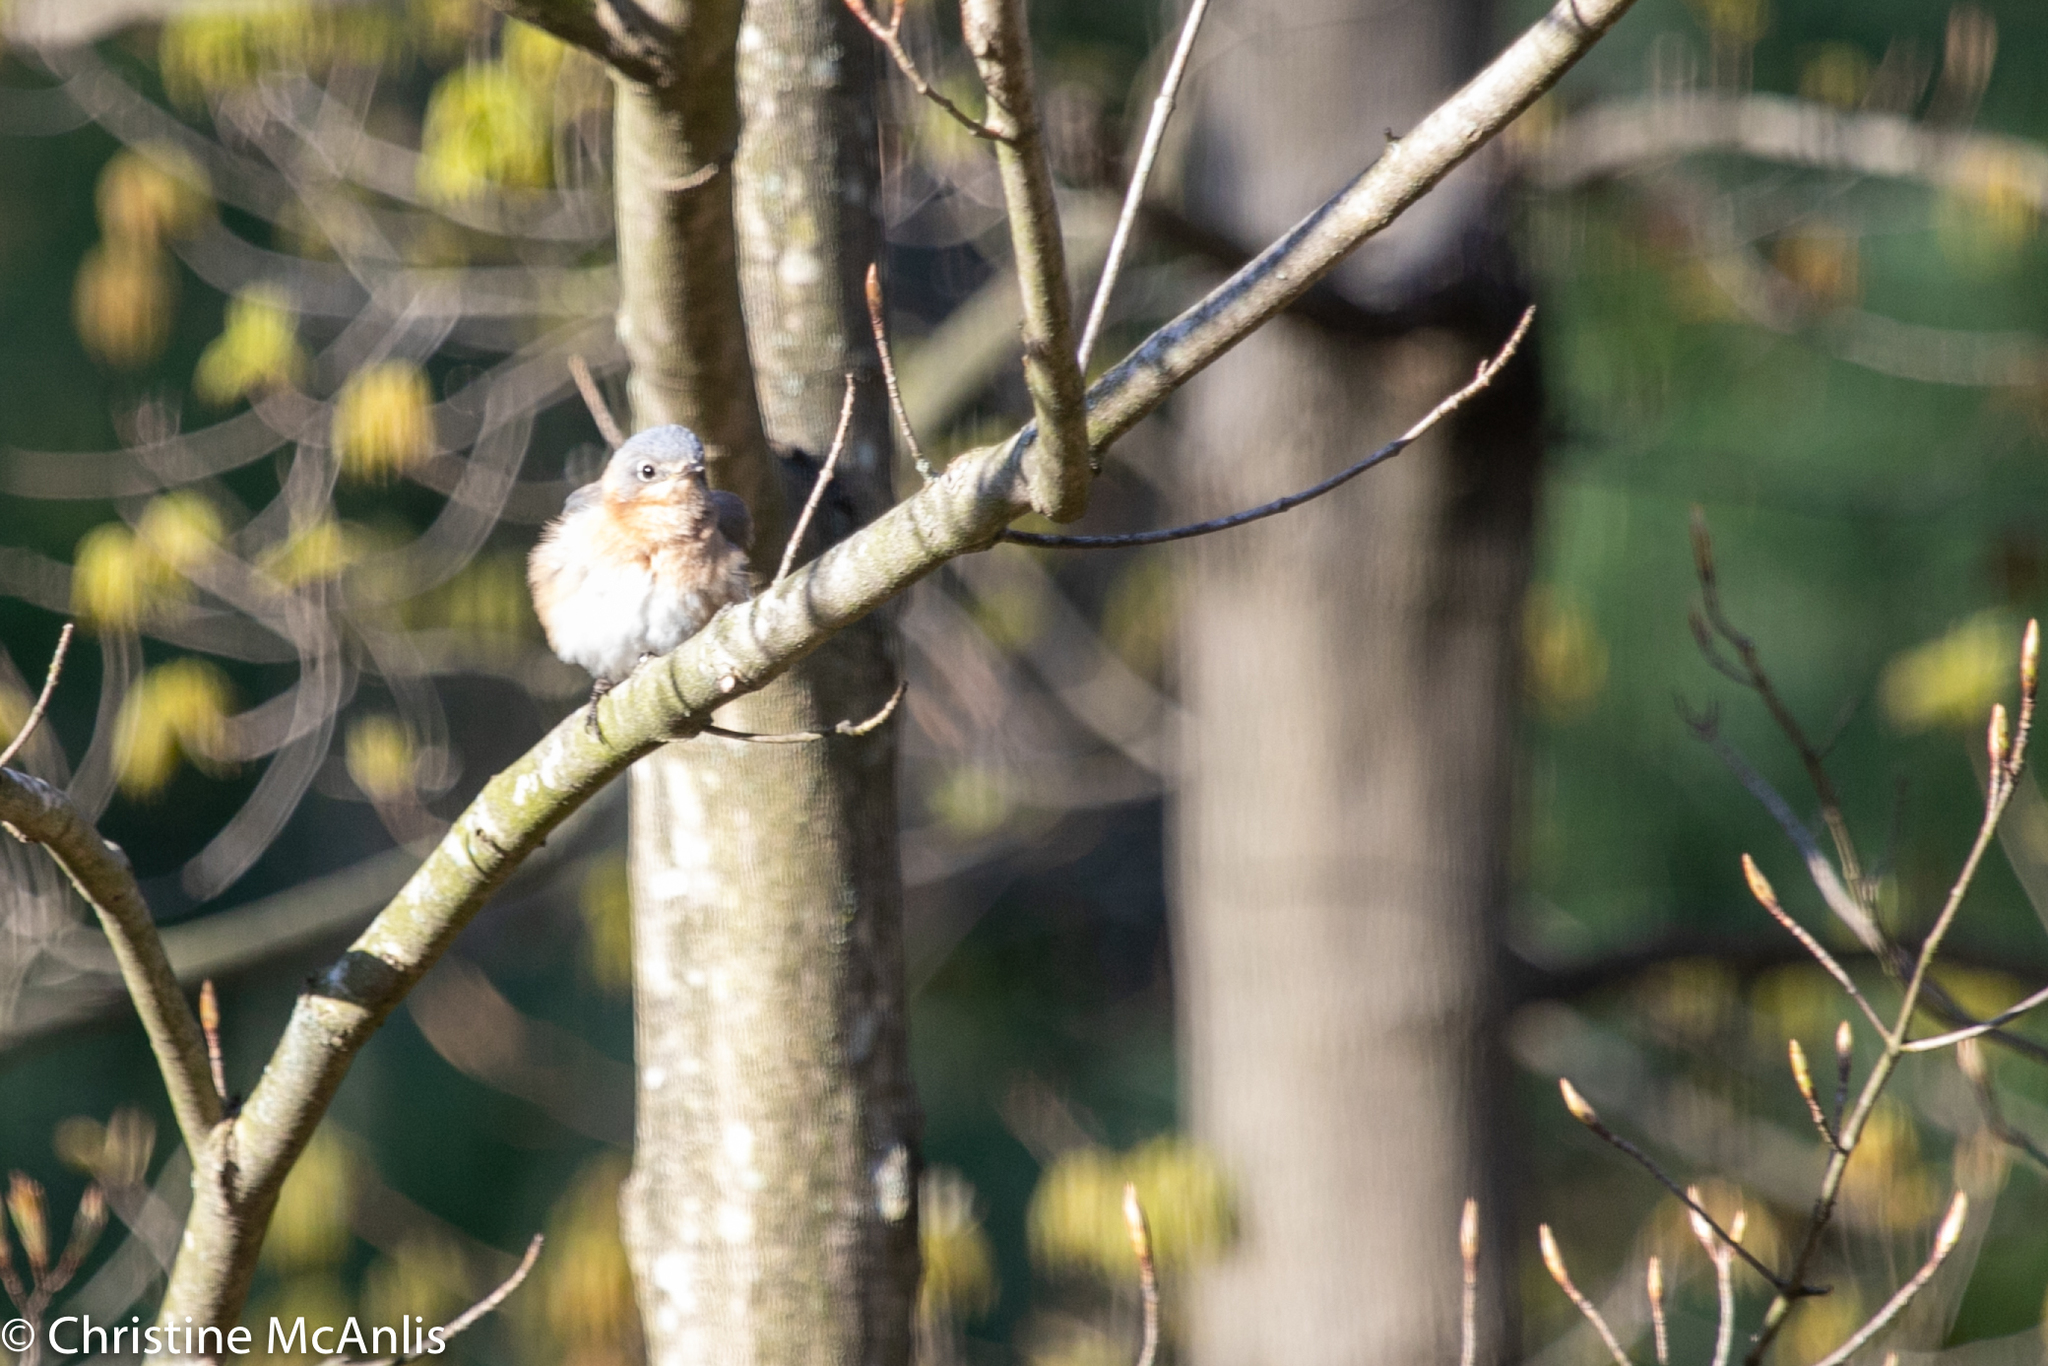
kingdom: Animalia
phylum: Chordata
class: Aves
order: Passeriformes
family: Turdidae
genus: Sialia
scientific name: Sialia sialis
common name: Eastern bluebird
